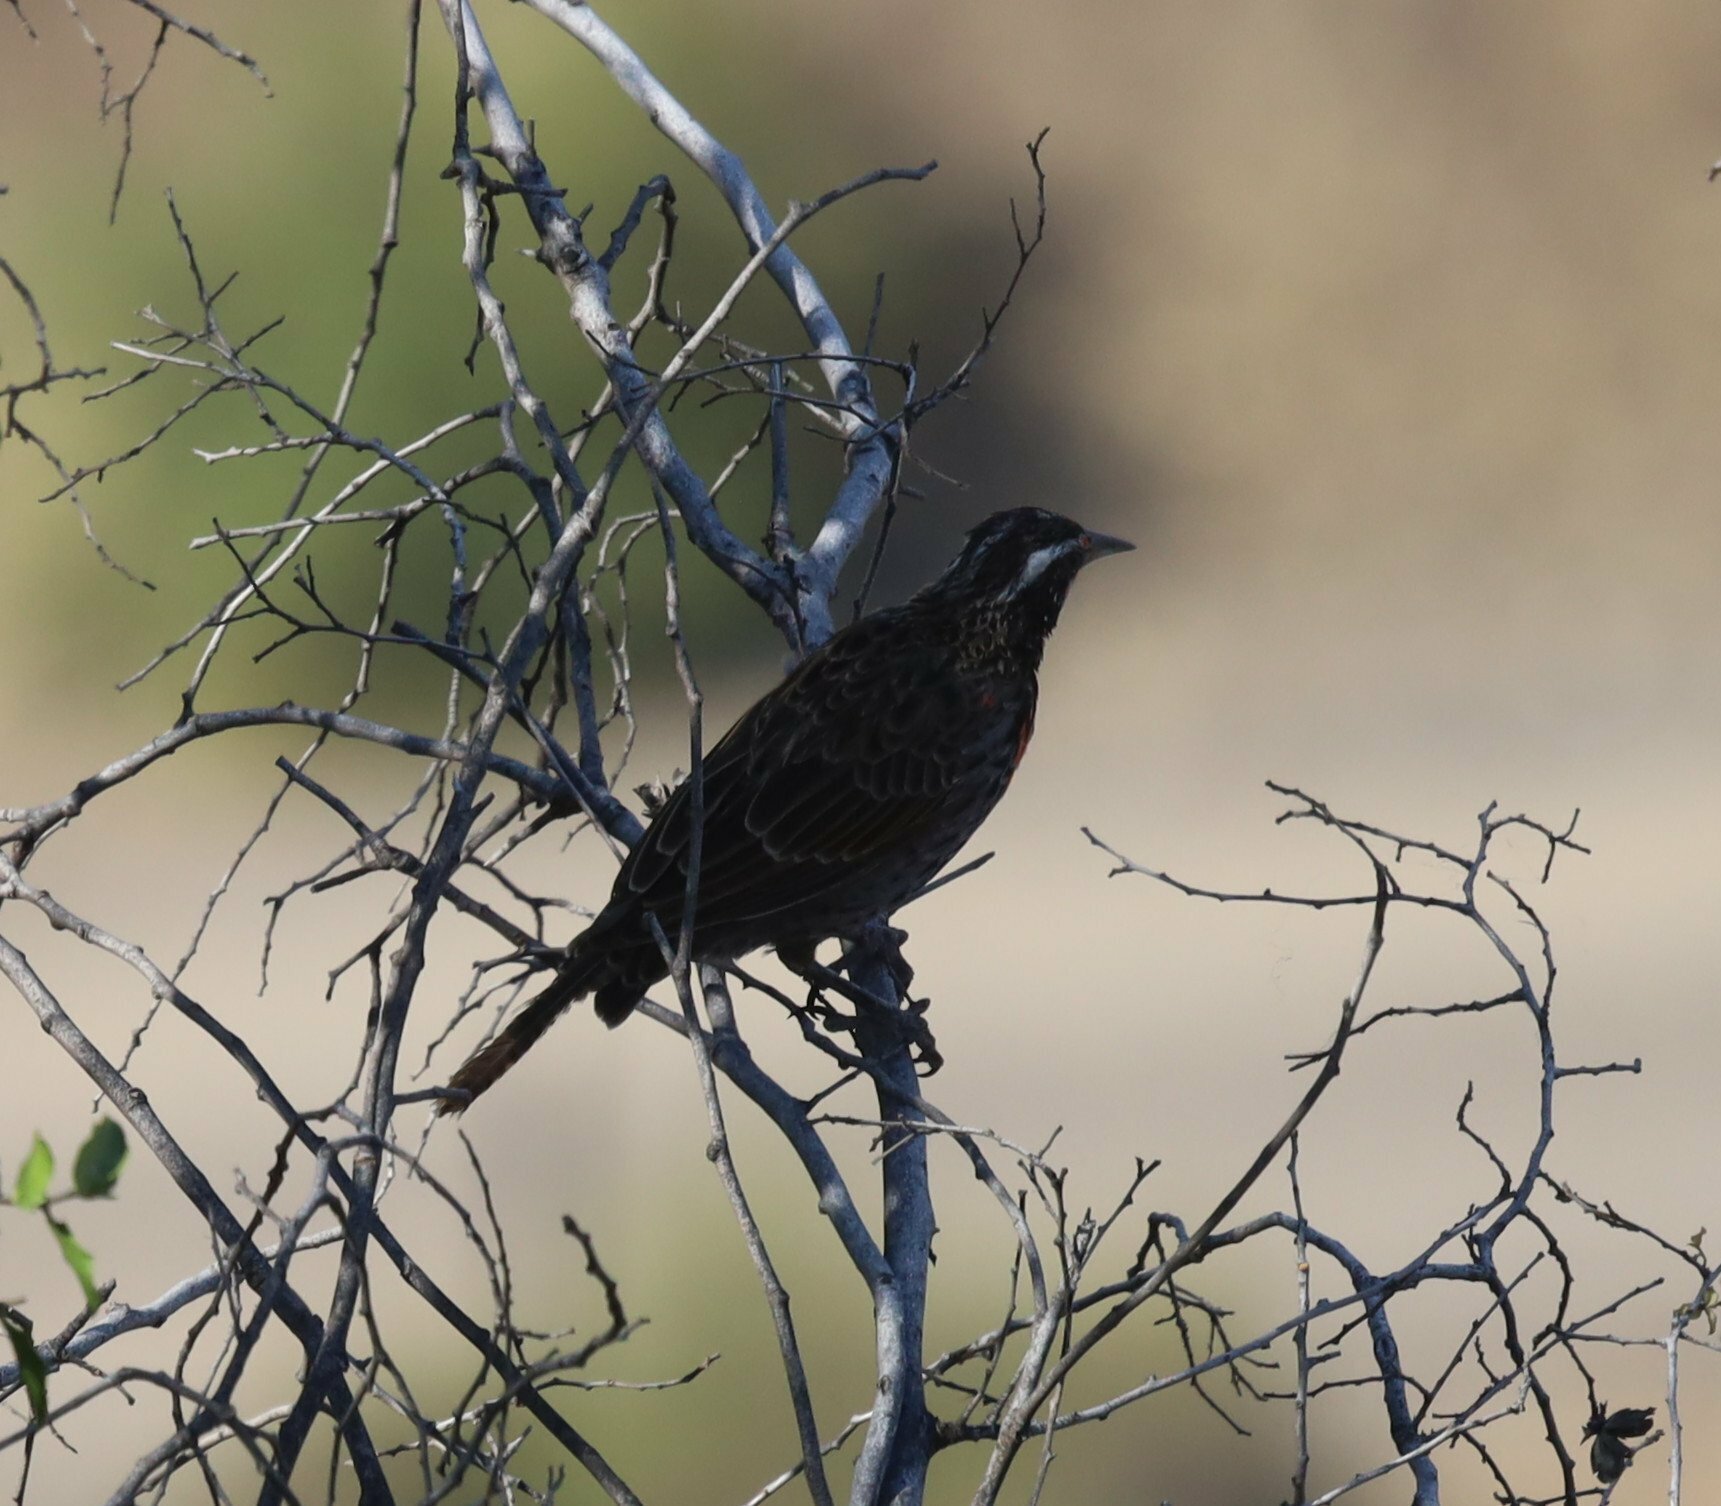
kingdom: Animalia
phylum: Chordata
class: Aves
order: Passeriformes
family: Icteridae
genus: Sturnella
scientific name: Sturnella loyca
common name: Long-tailed meadowlark
